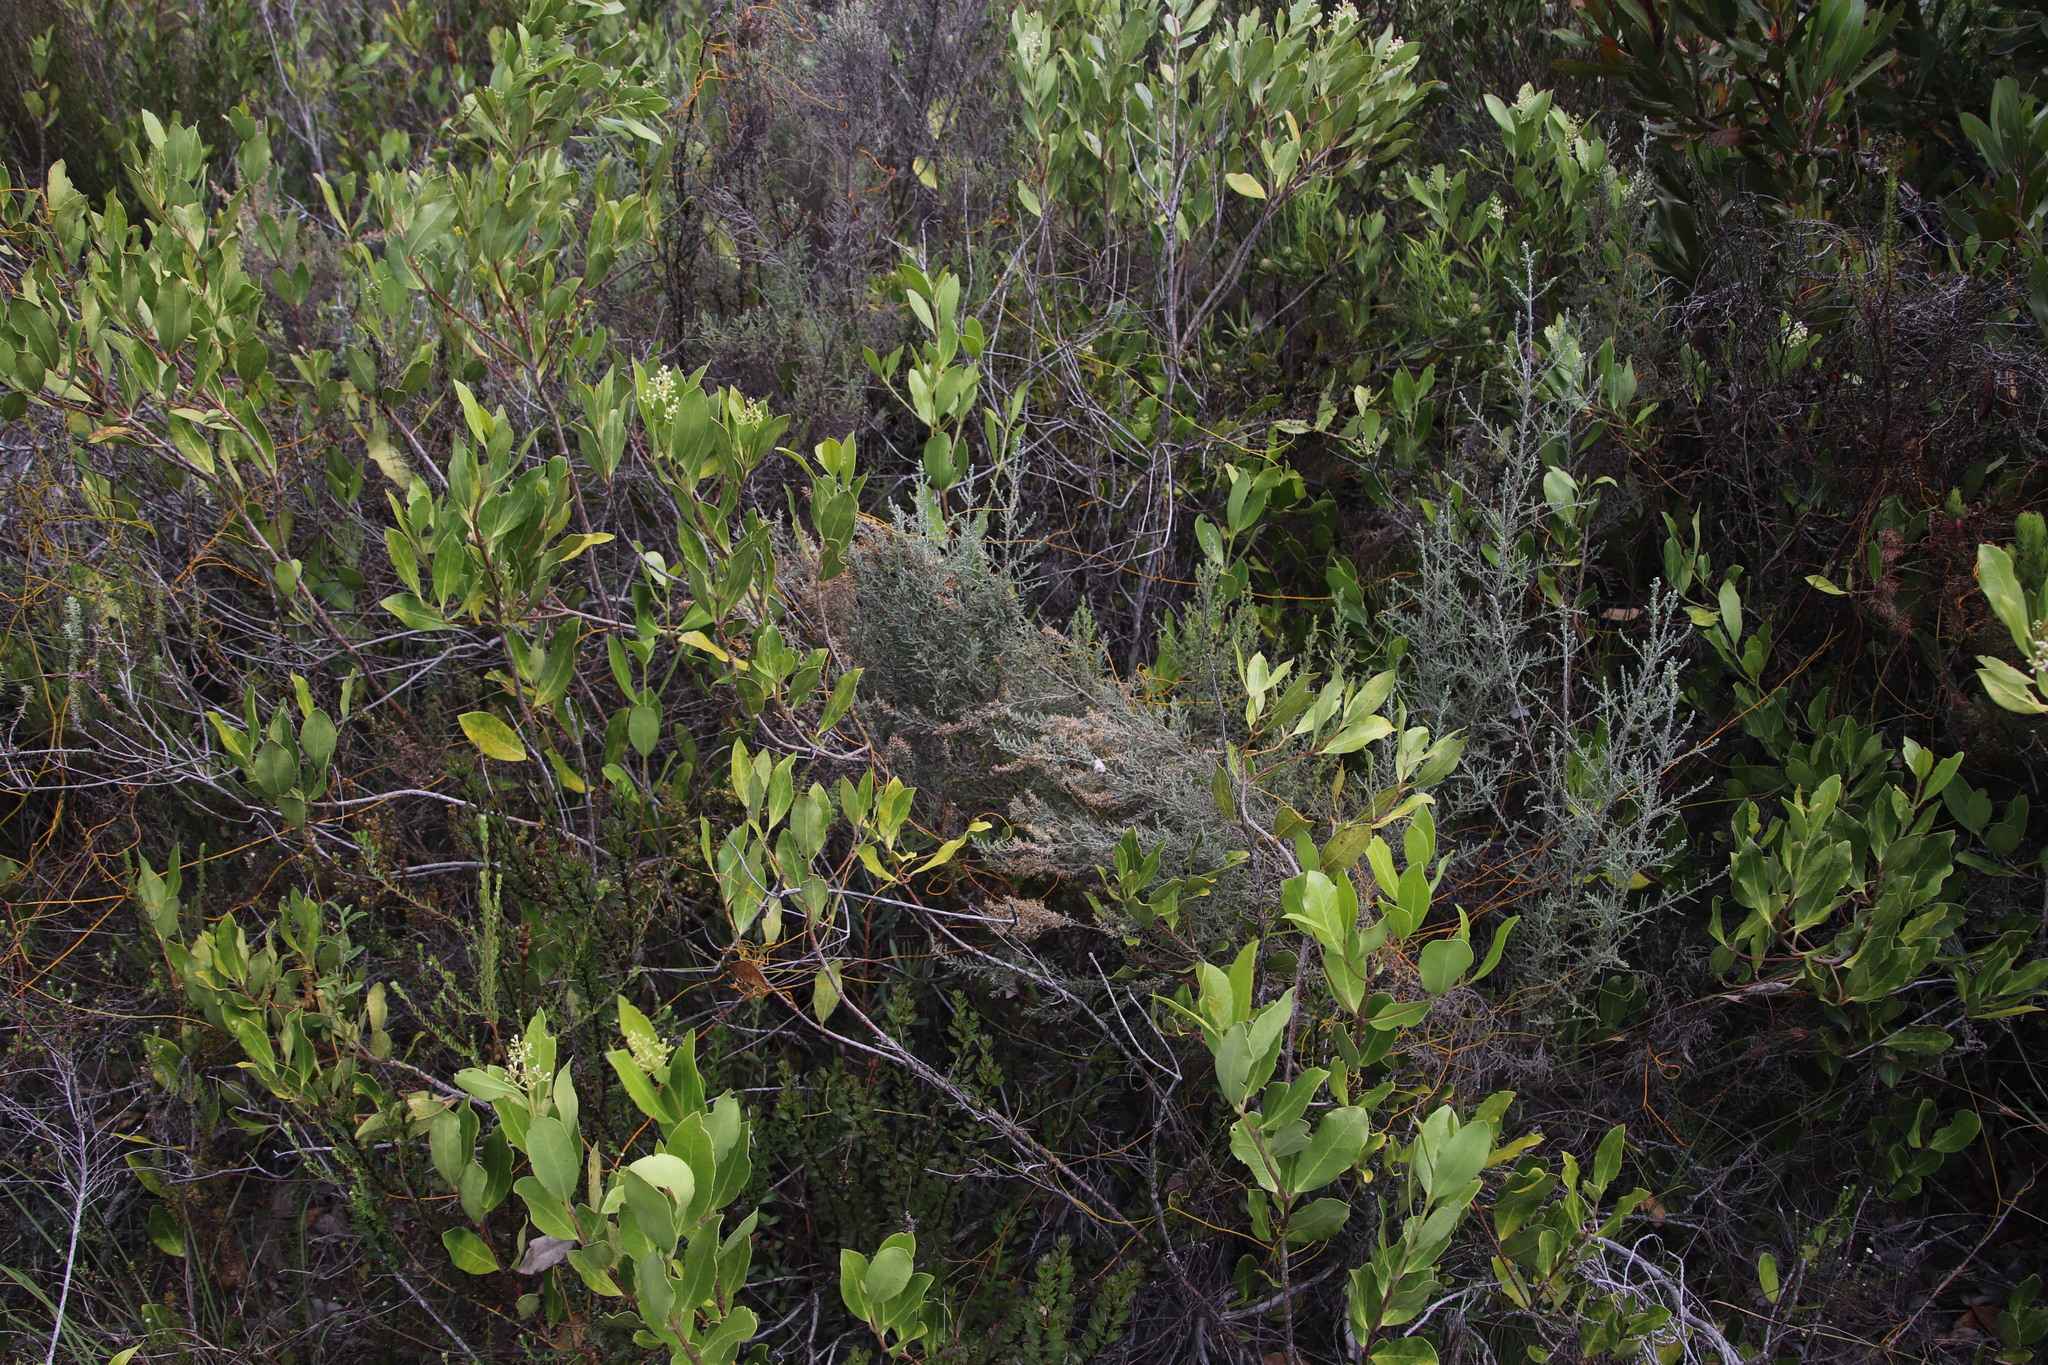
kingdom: Plantae
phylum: Tracheophyta
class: Magnoliopsida
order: Asterales
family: Asteraceae
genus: Seriphium
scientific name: Seriphium plumosum
